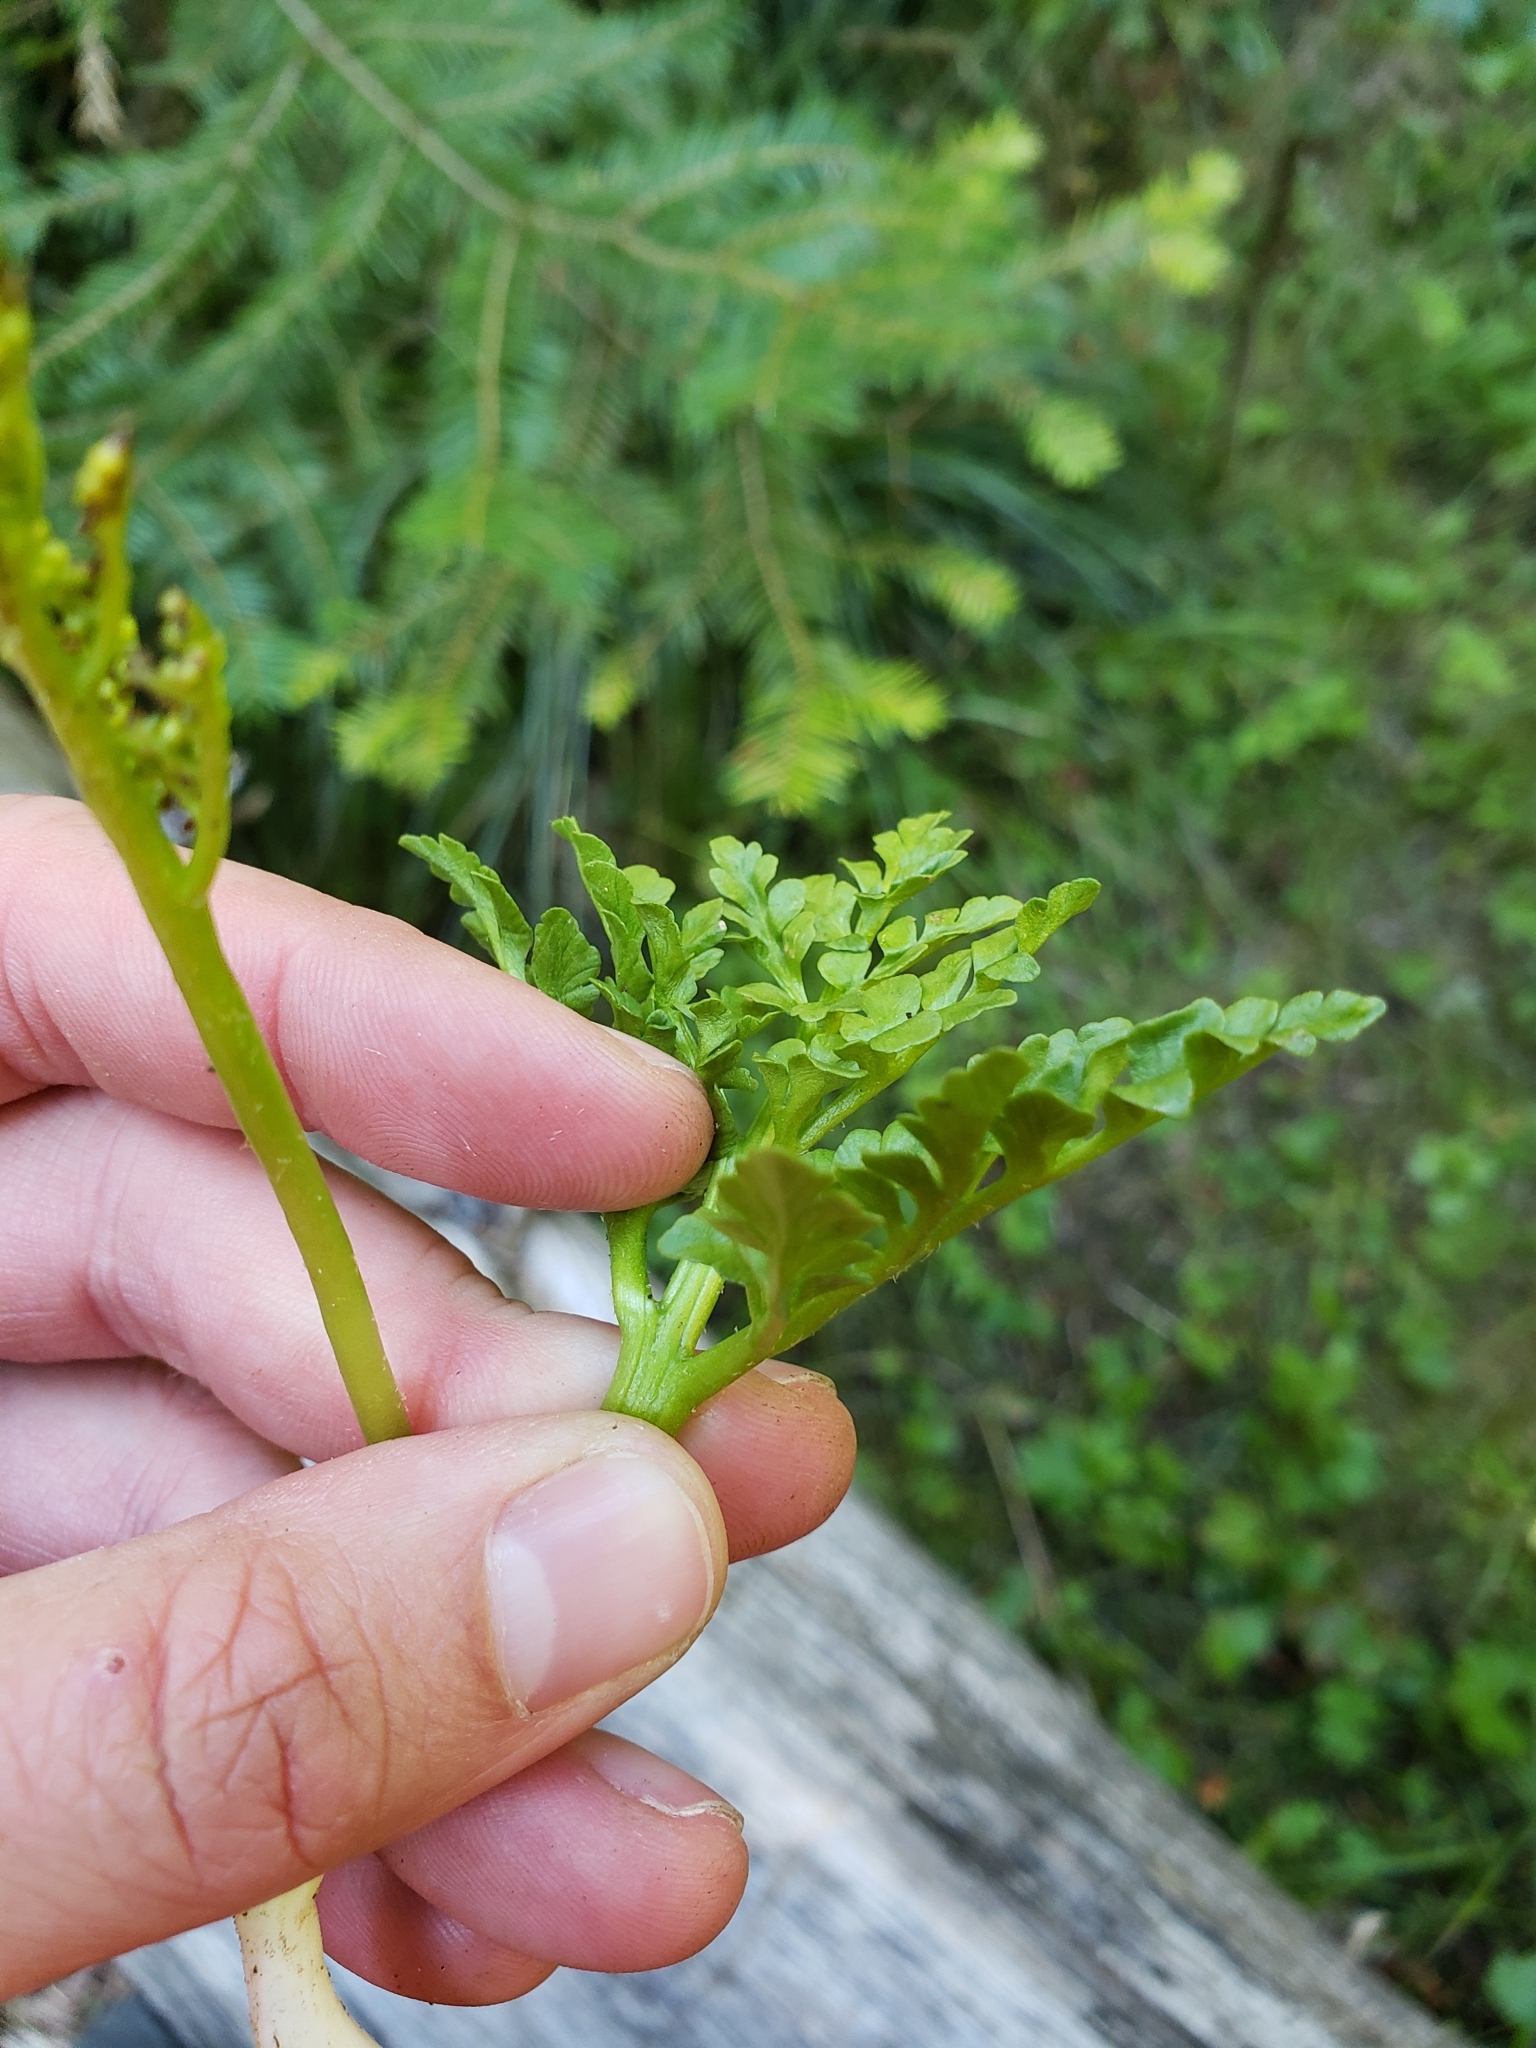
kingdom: Plantae
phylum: Tracheophyta
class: Polypodiopsida
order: Ophioglossales
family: Ophioglossaceae
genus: Sceptridium
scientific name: Sceptridium multifidum
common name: Leathery grape fern
